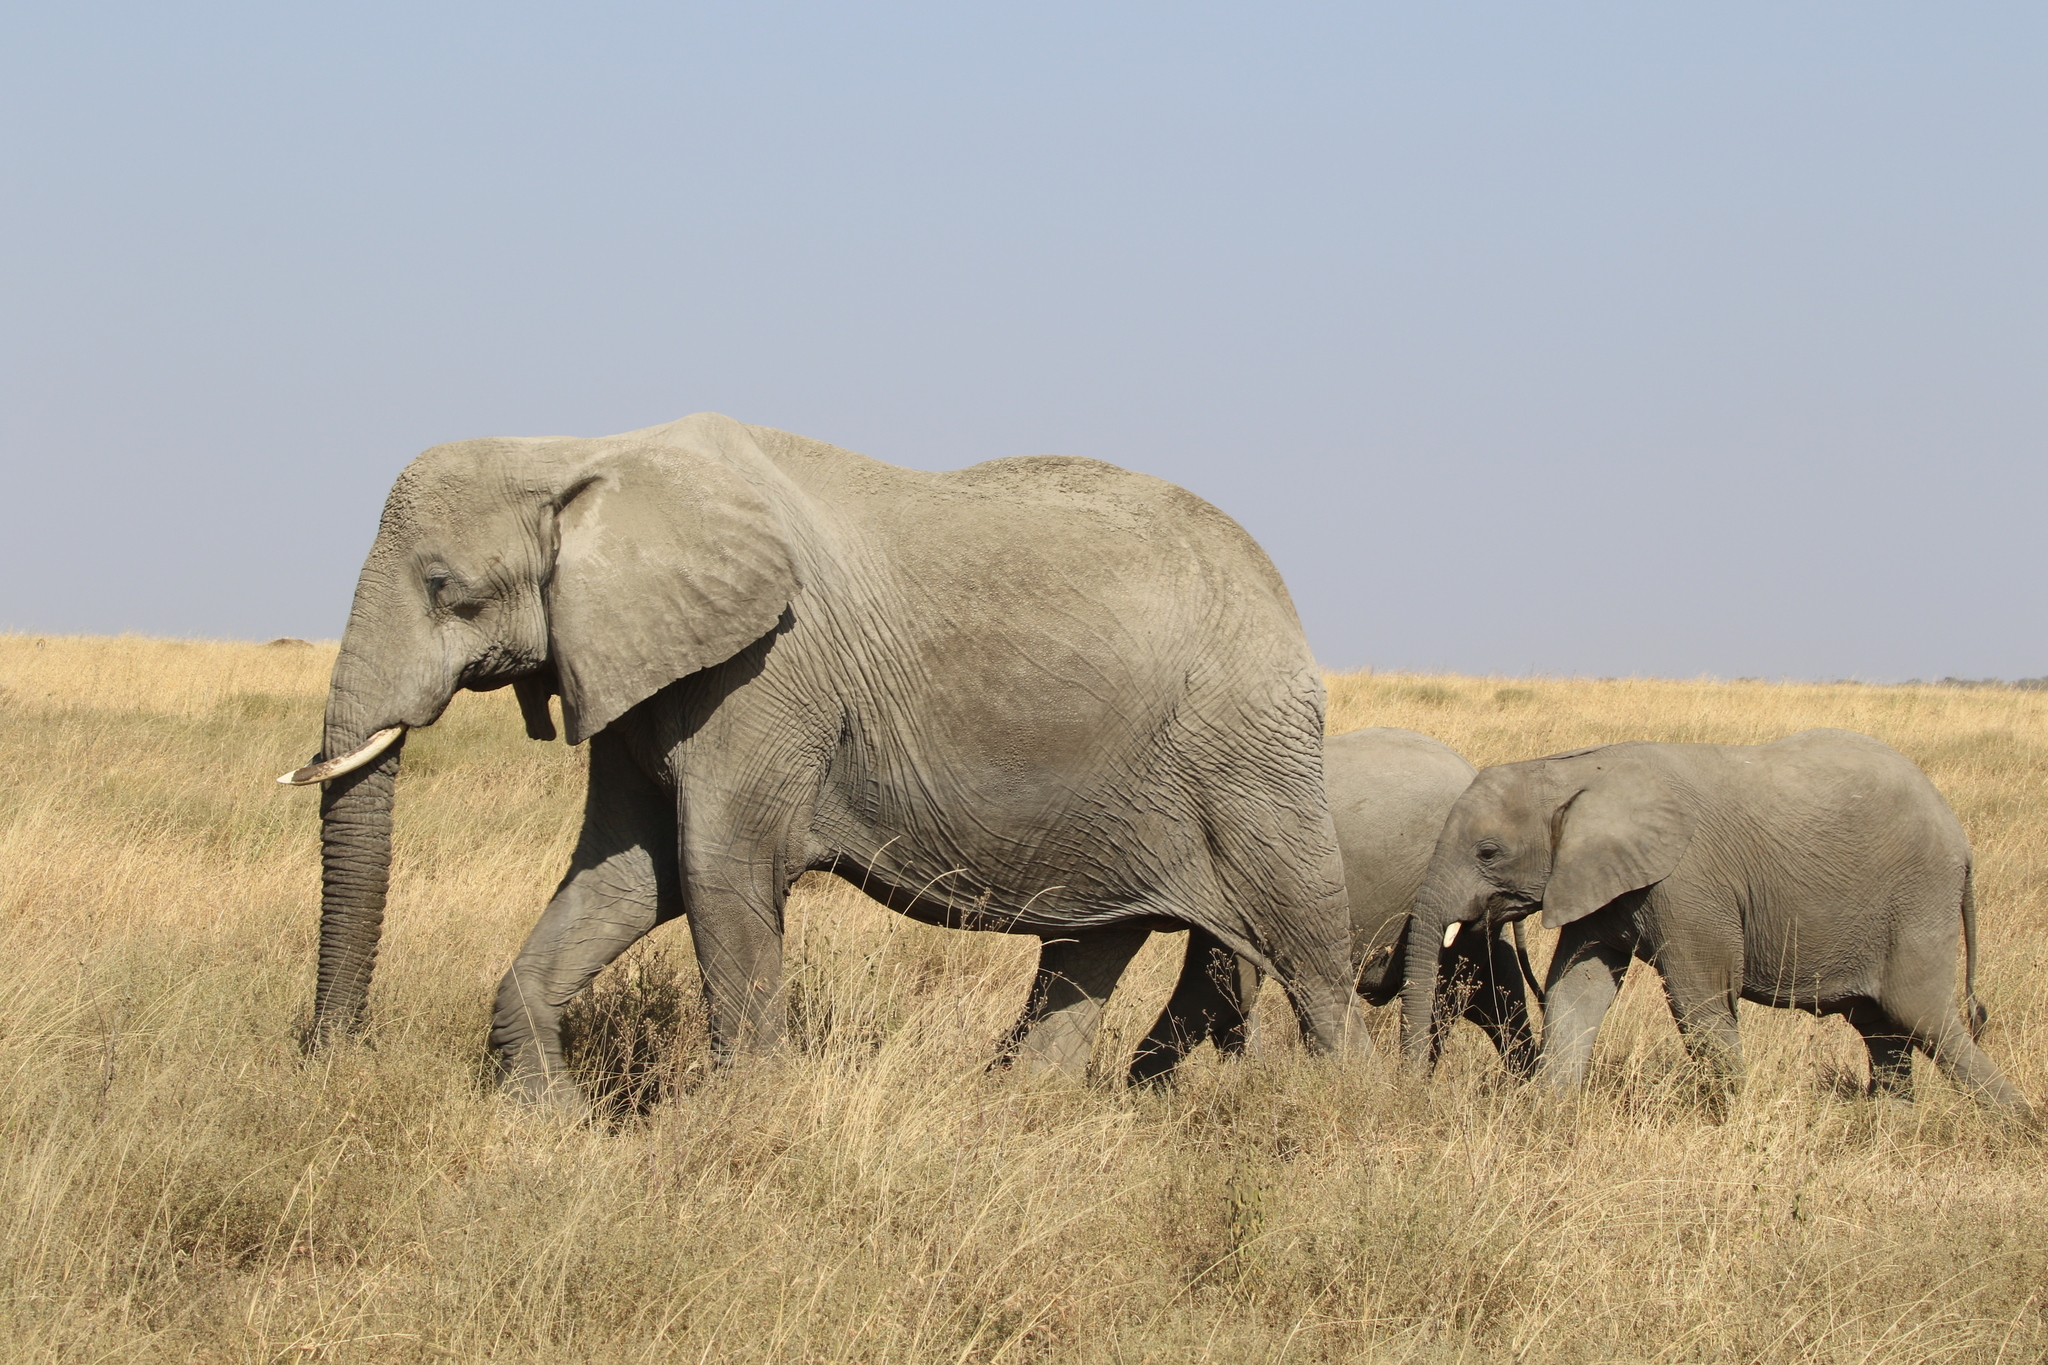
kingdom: Animalia
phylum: Chordata
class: Mammalia
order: Proboscidea
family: Elephantidae
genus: Loxodonta
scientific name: Loxodonta africana
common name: African elephant
